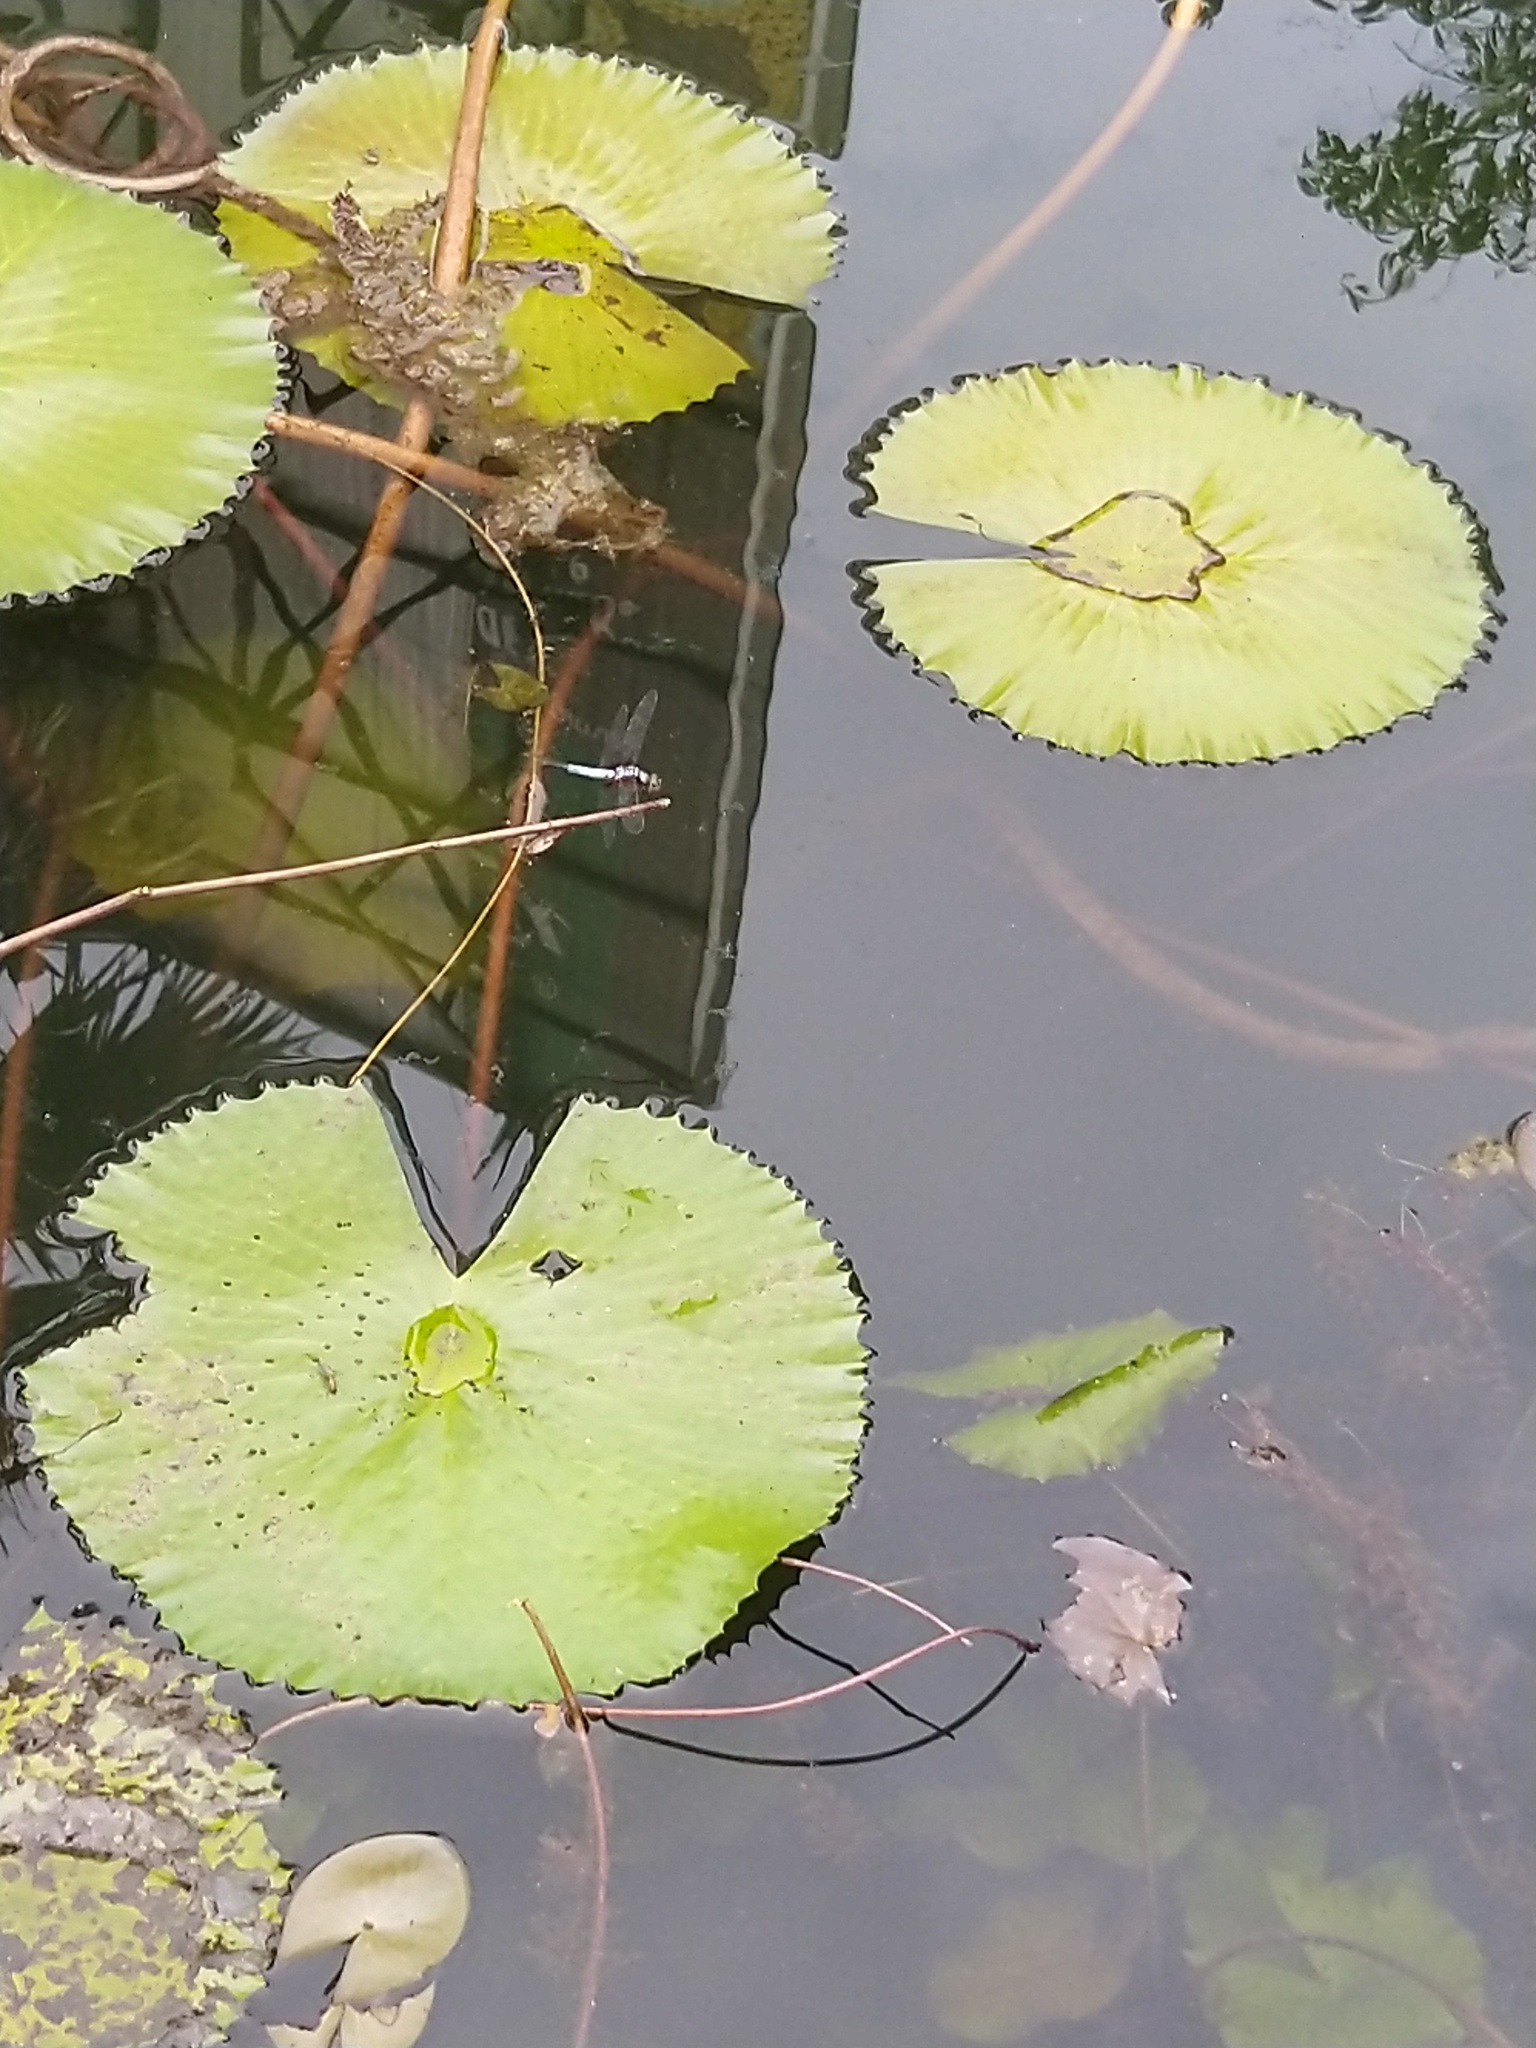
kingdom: Animalia
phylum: Arthropoda
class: Insecta
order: Odonata
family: Libellulidae
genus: Brachydiplax
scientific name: Brachydiplax chalybea
